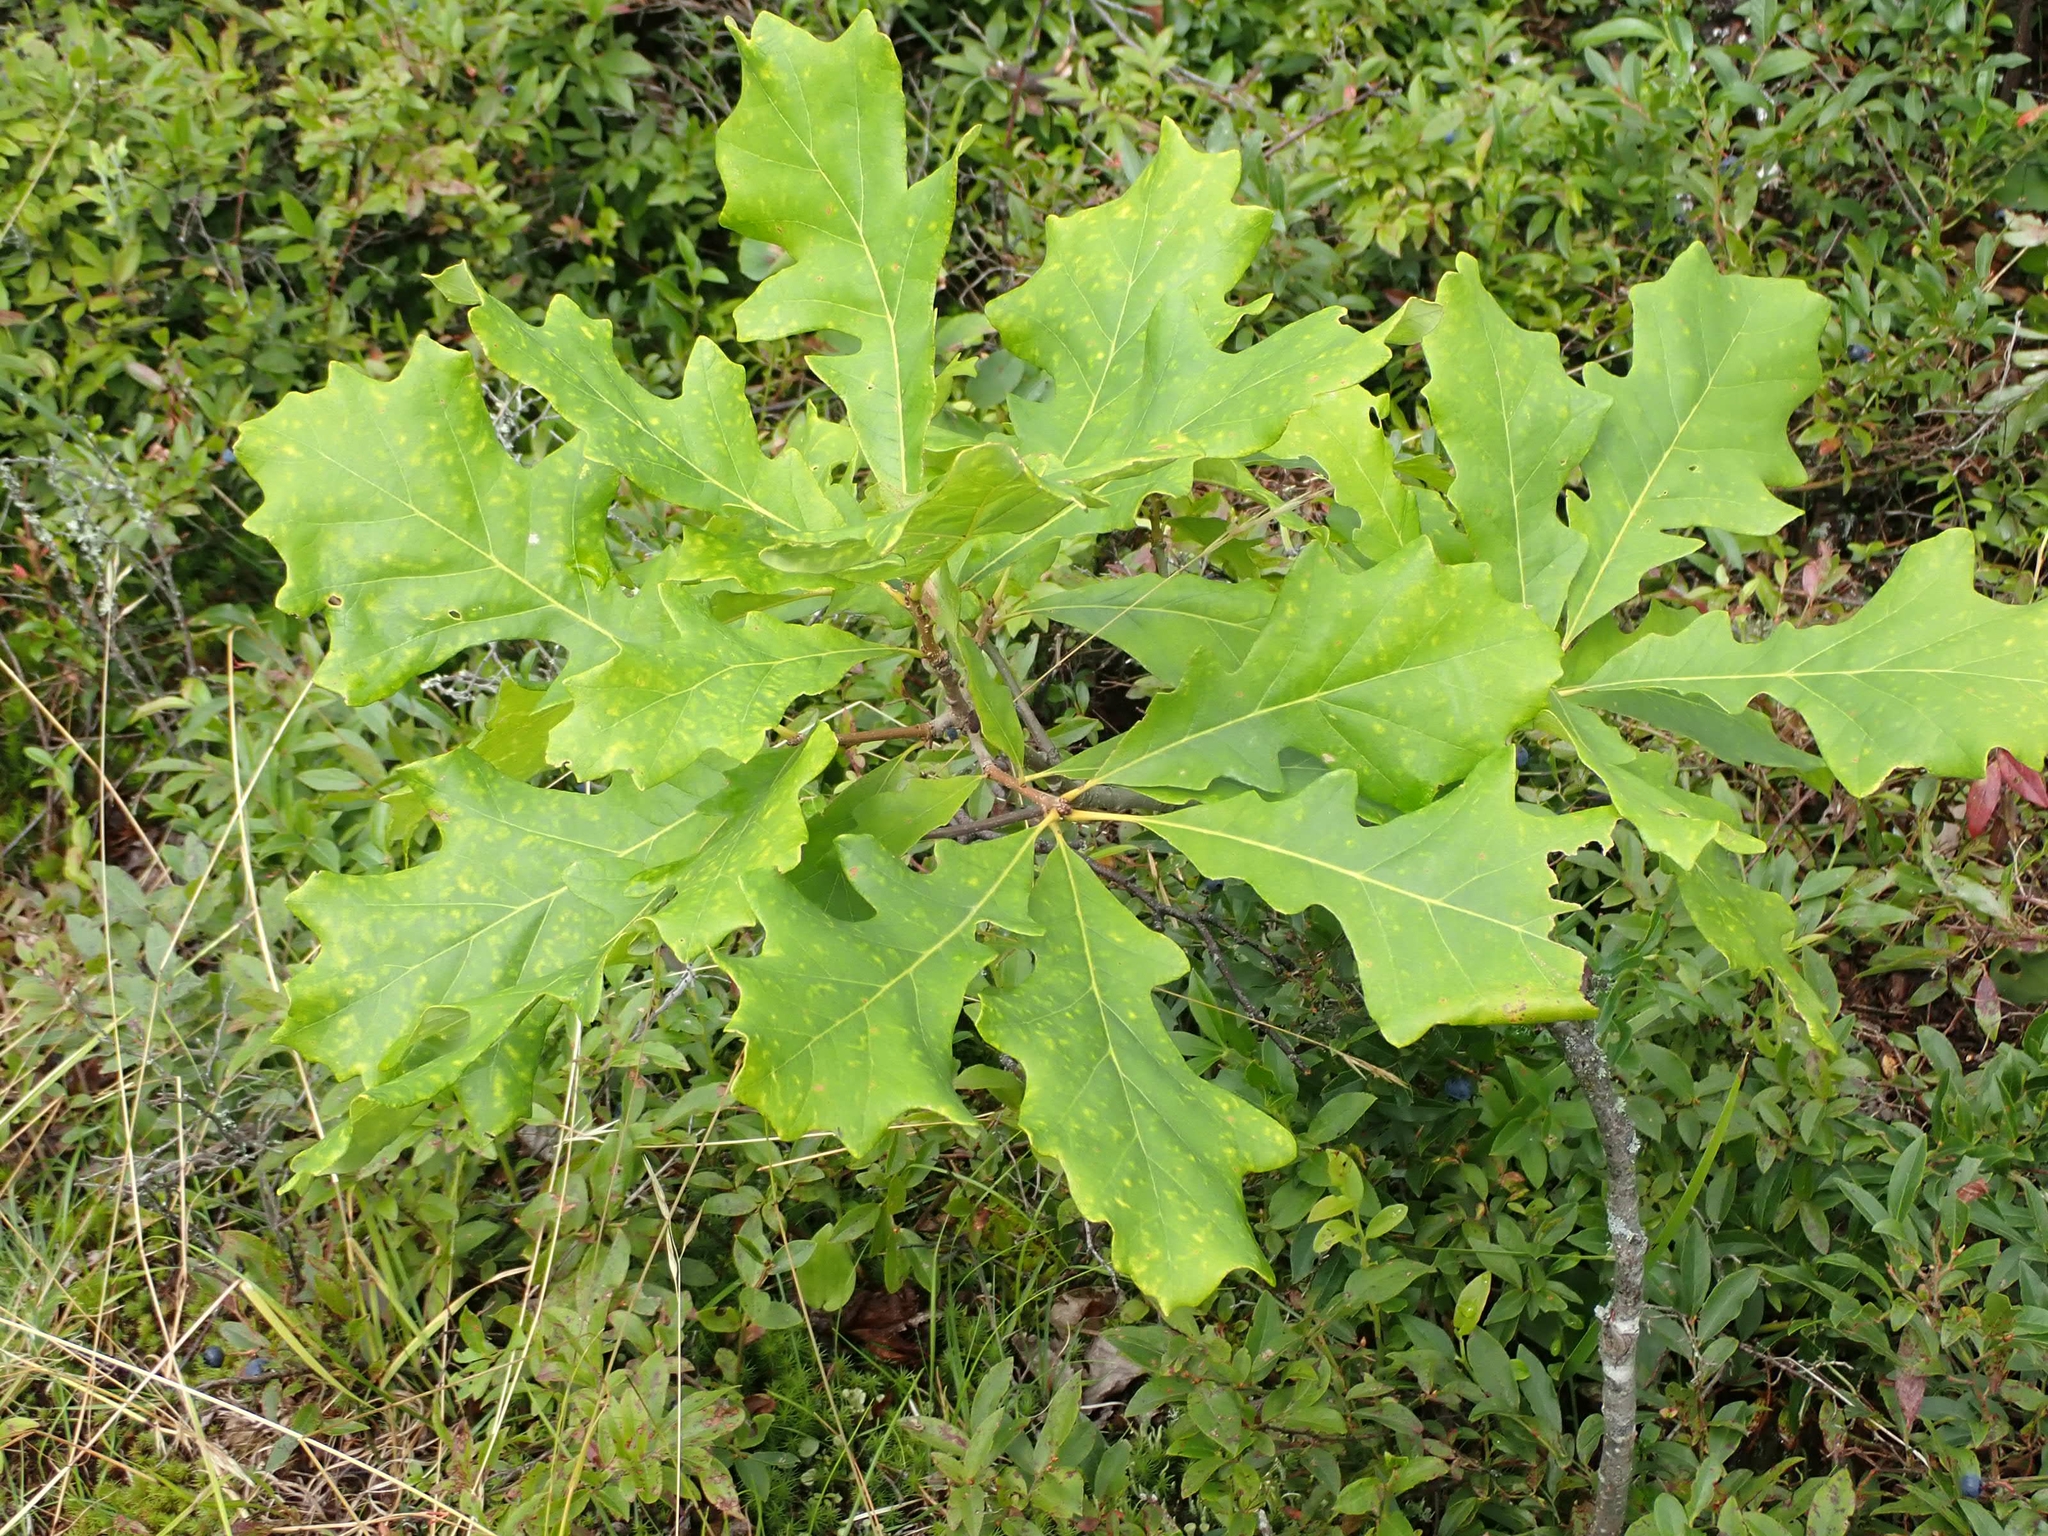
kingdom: Plantae
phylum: Tracheophyta
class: Magnoliopsida
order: Fagales
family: Fagaceae
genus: Quercus
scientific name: Quercus macrocarpa
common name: Bur oak
